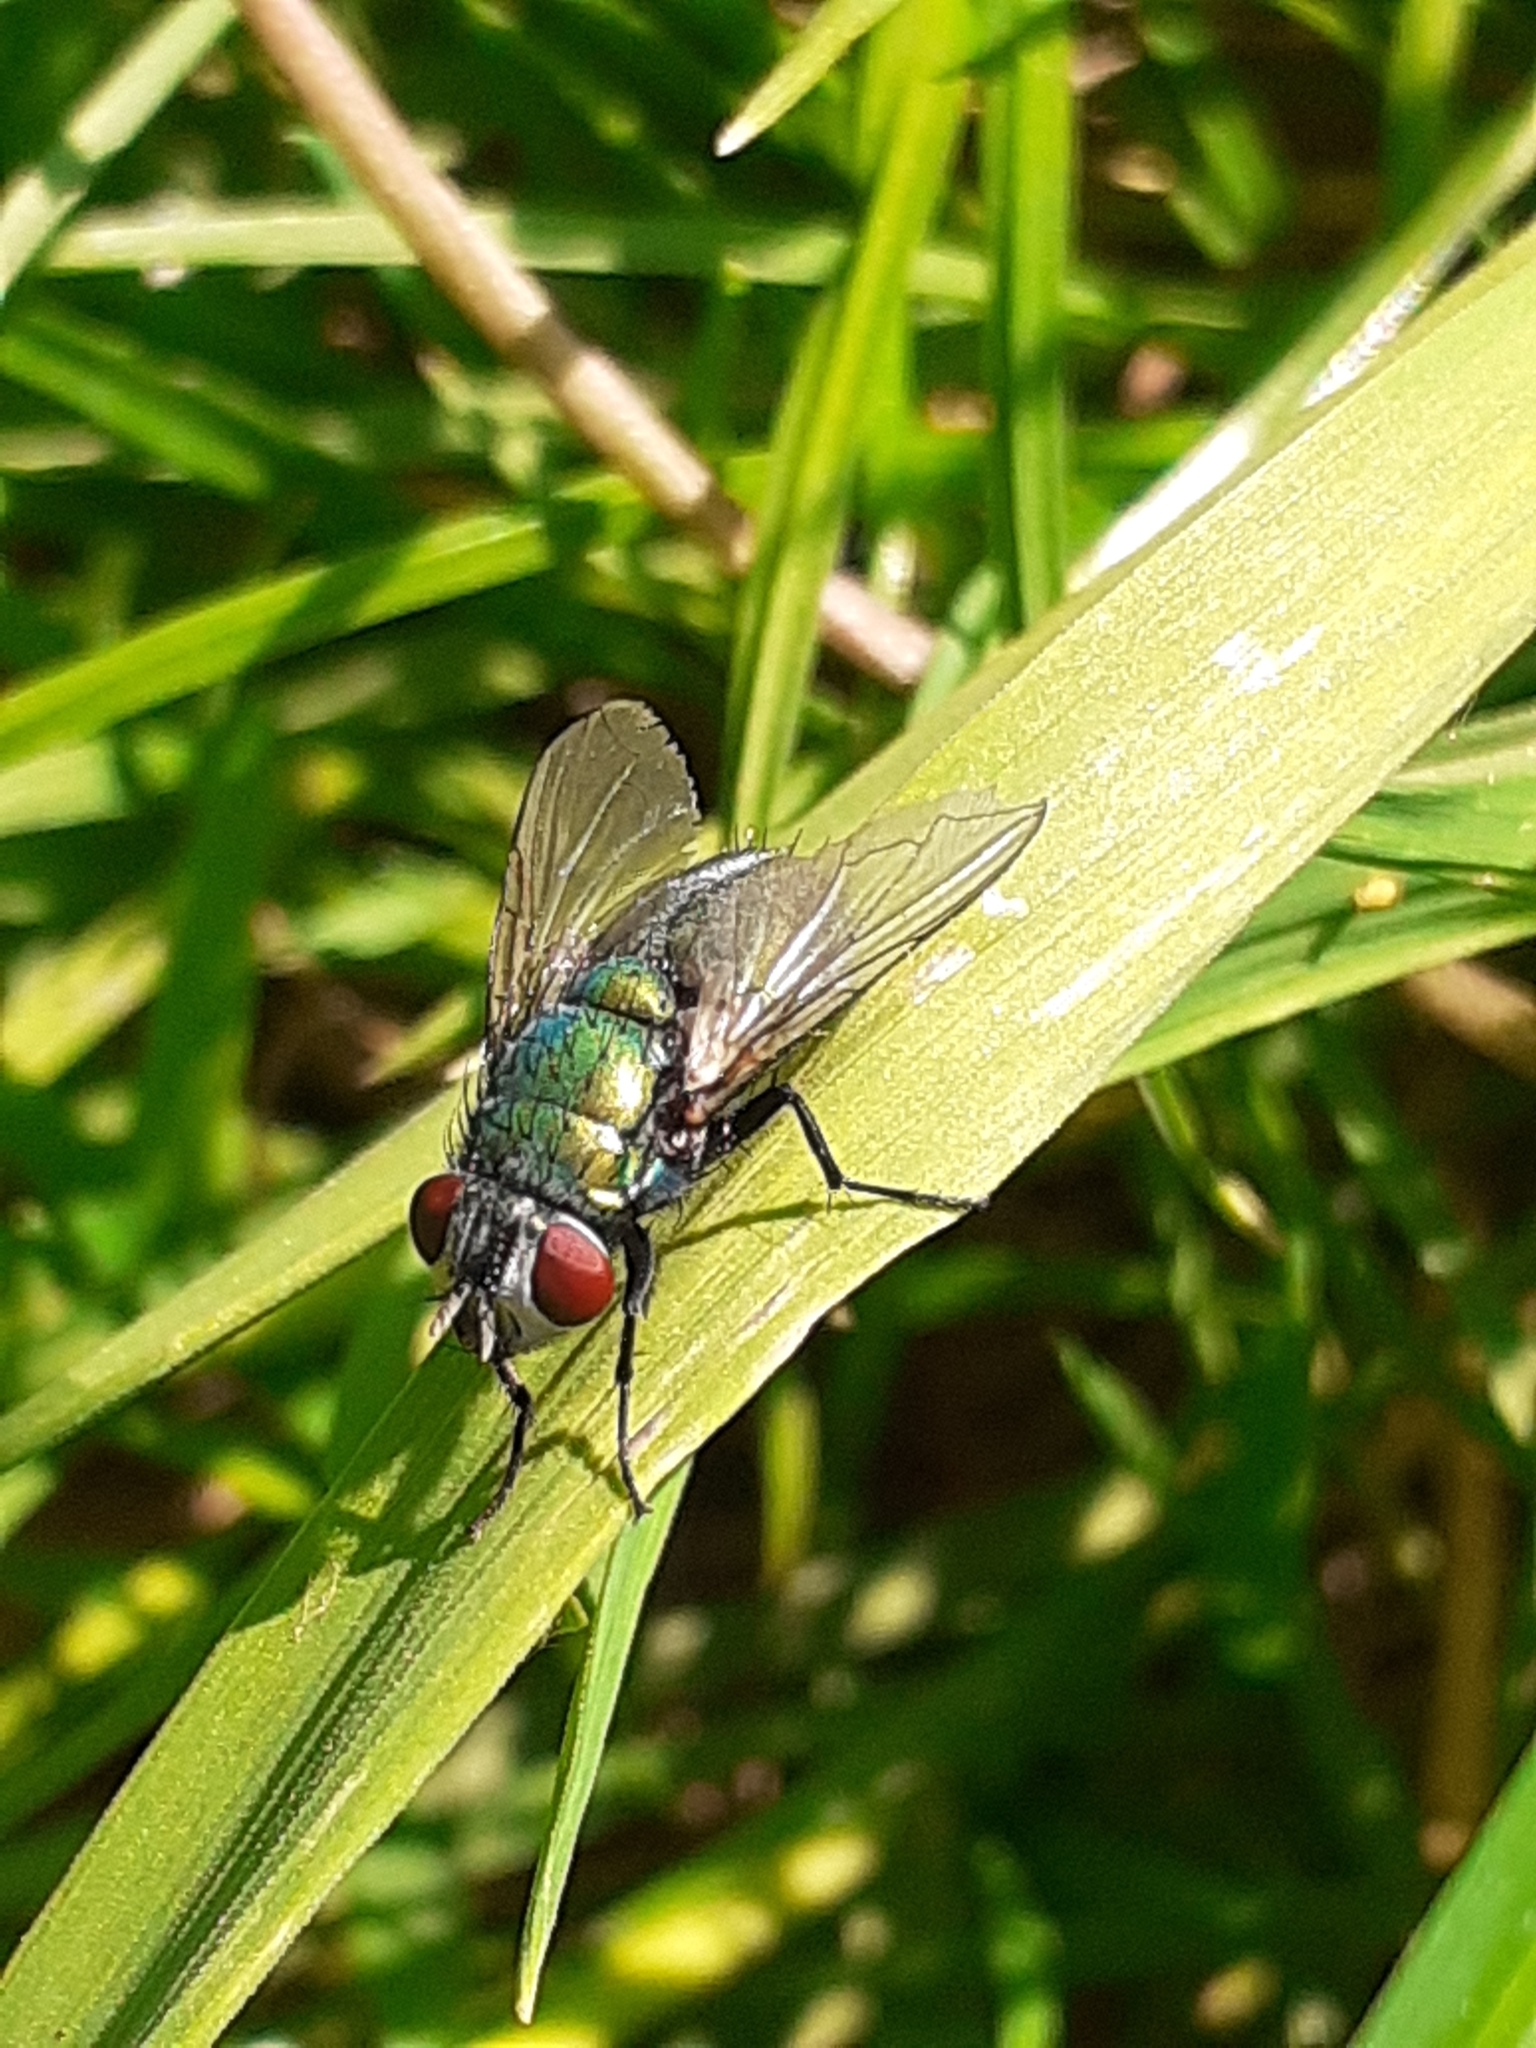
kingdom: Animalia
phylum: Arthropoda
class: Insecta
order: Diptera
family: Calliphoridae
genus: Lucilia
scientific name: Lucilia
